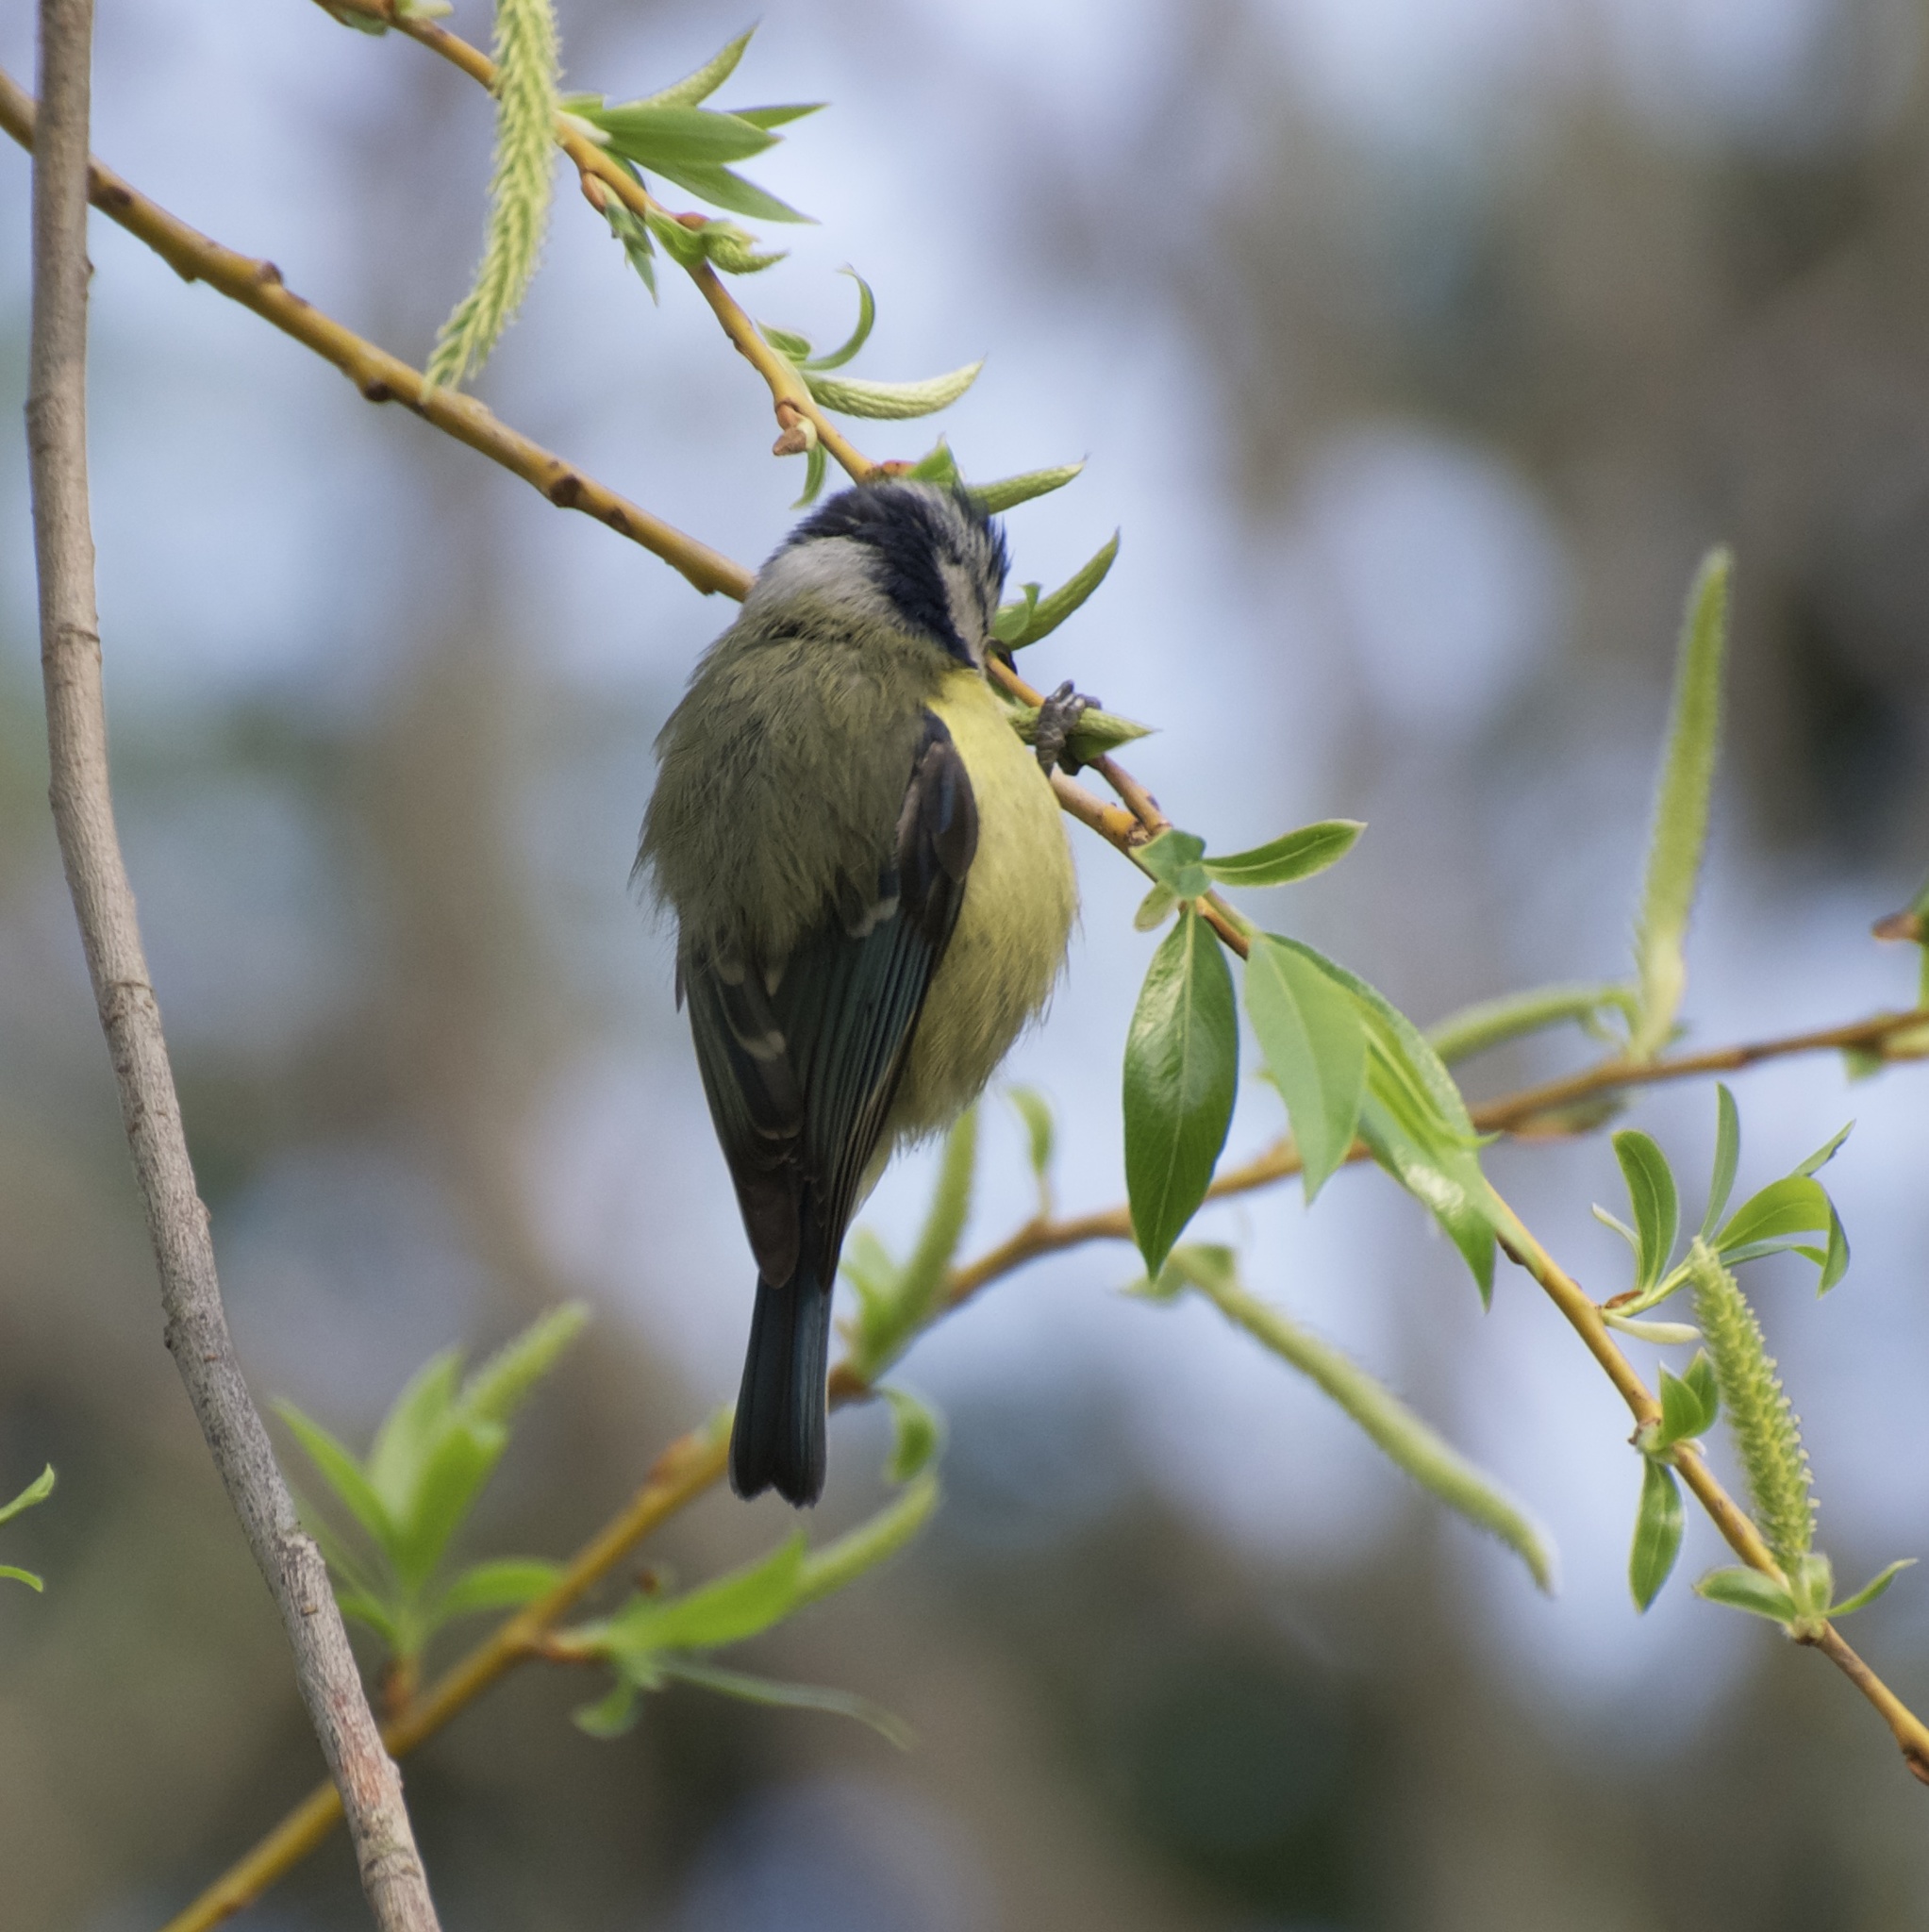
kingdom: Animalia
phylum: Chordata
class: Aves
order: Passeriformes
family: Paridae
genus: Cyanistes
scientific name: Cyanistes caeruleus
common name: Eurasian blue tit
